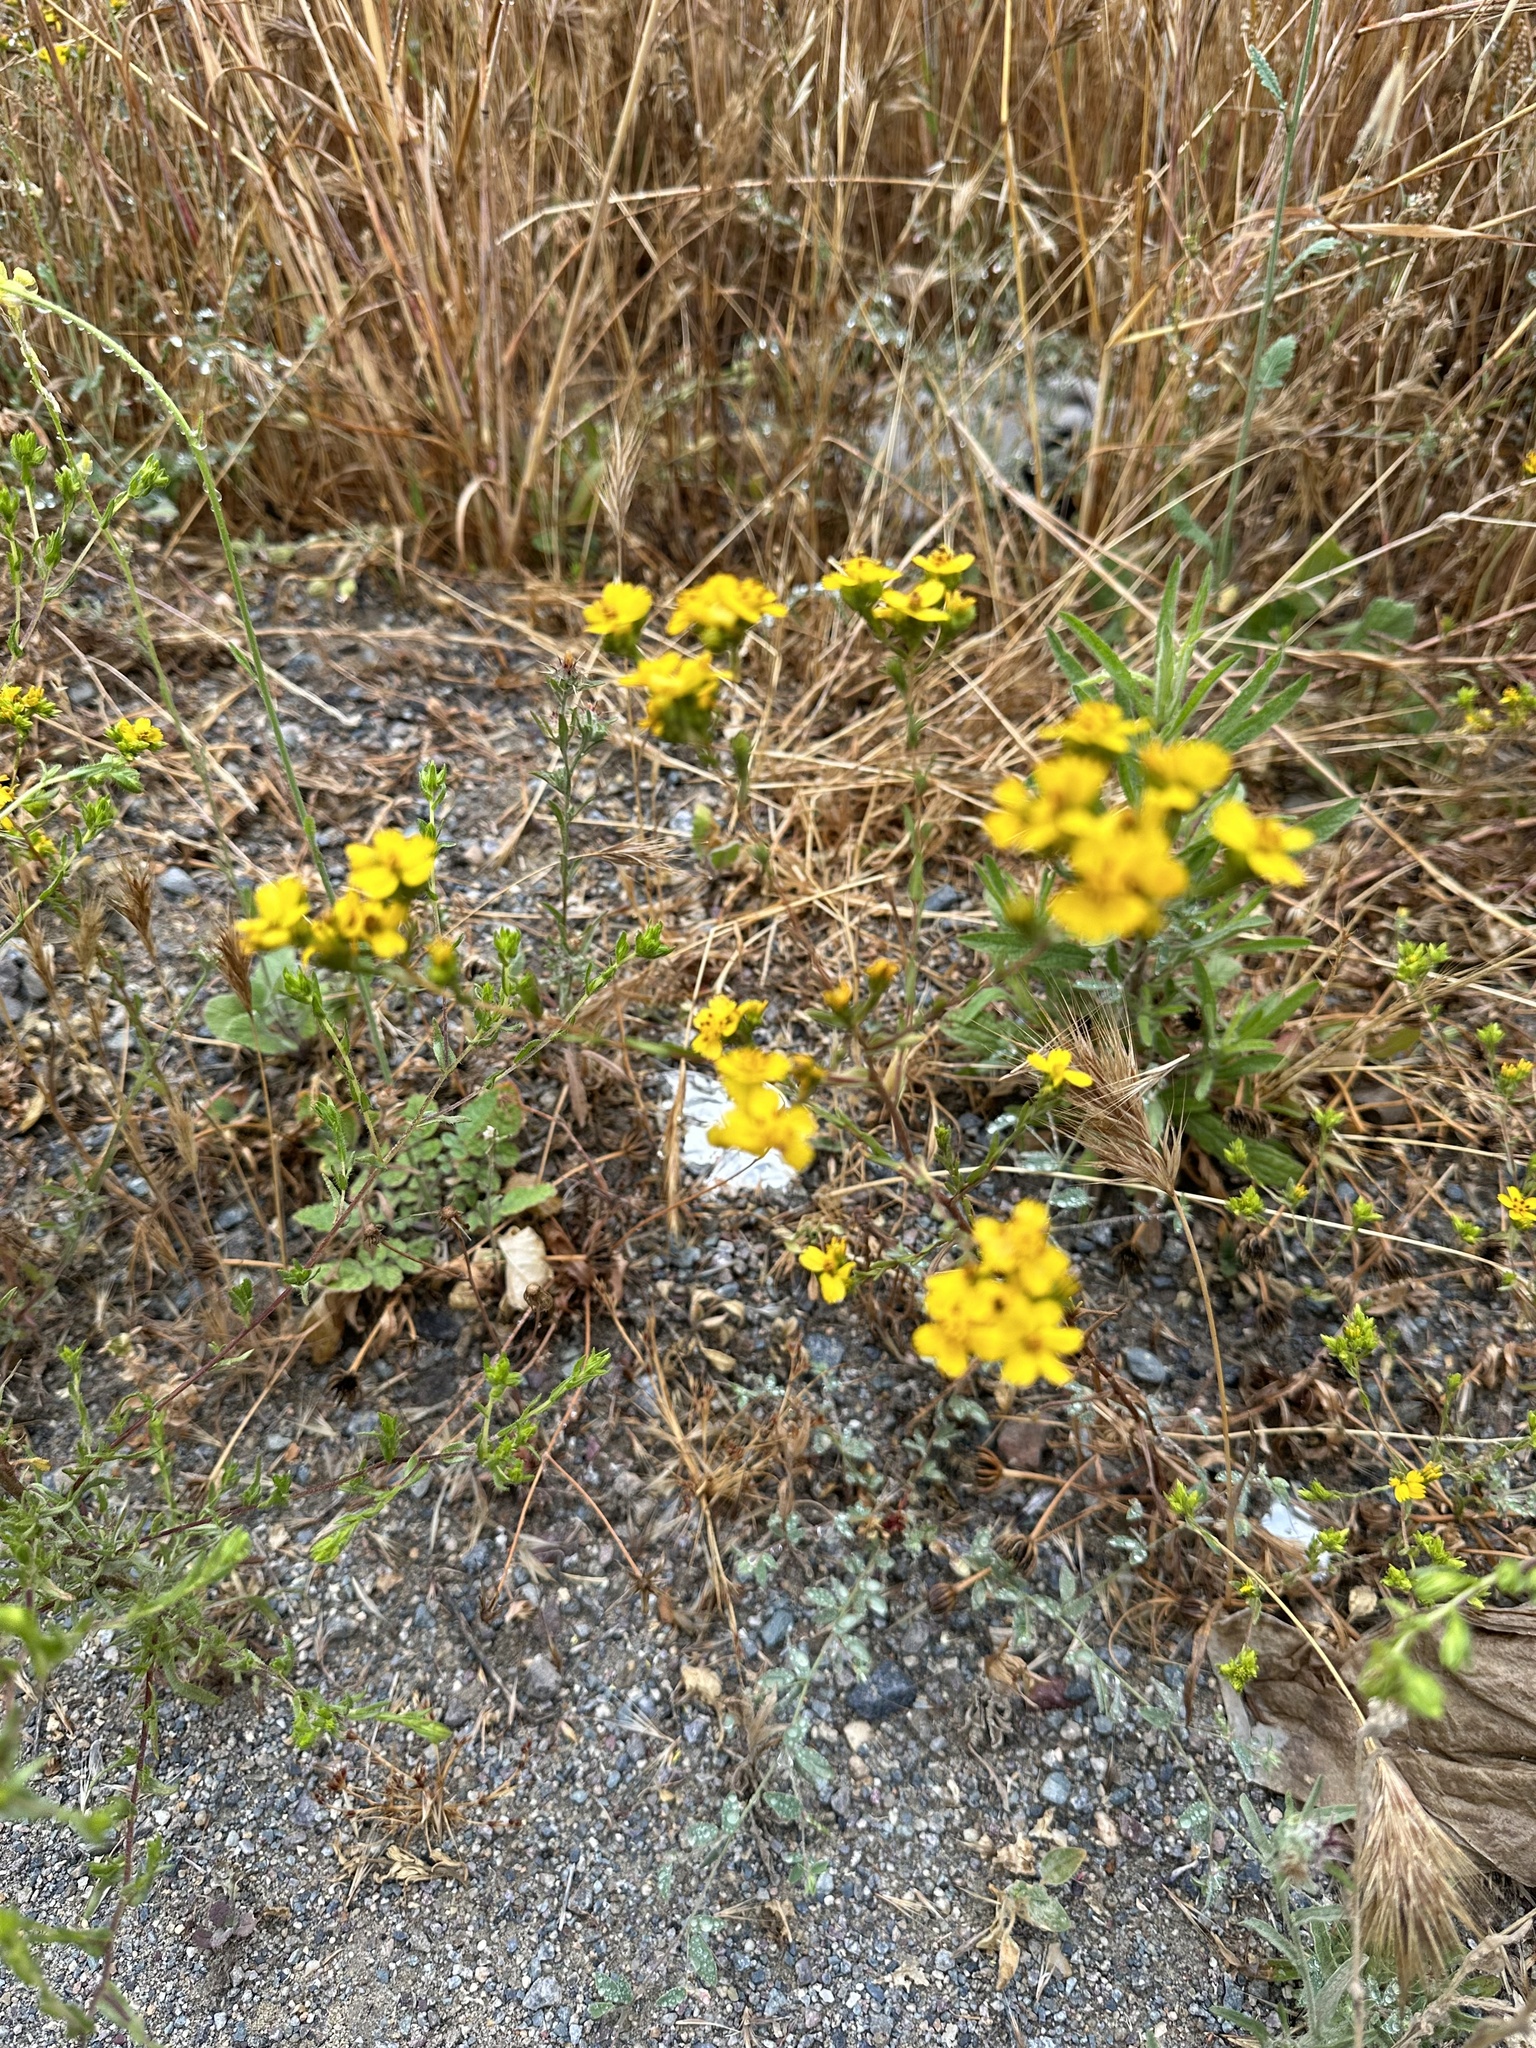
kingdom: Plantae
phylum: Tracheophyta
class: Magnoliopsida
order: Asterales
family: Asteraceae
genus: Deinandra
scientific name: Deinandra fasciculata
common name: Clustered tarweed
